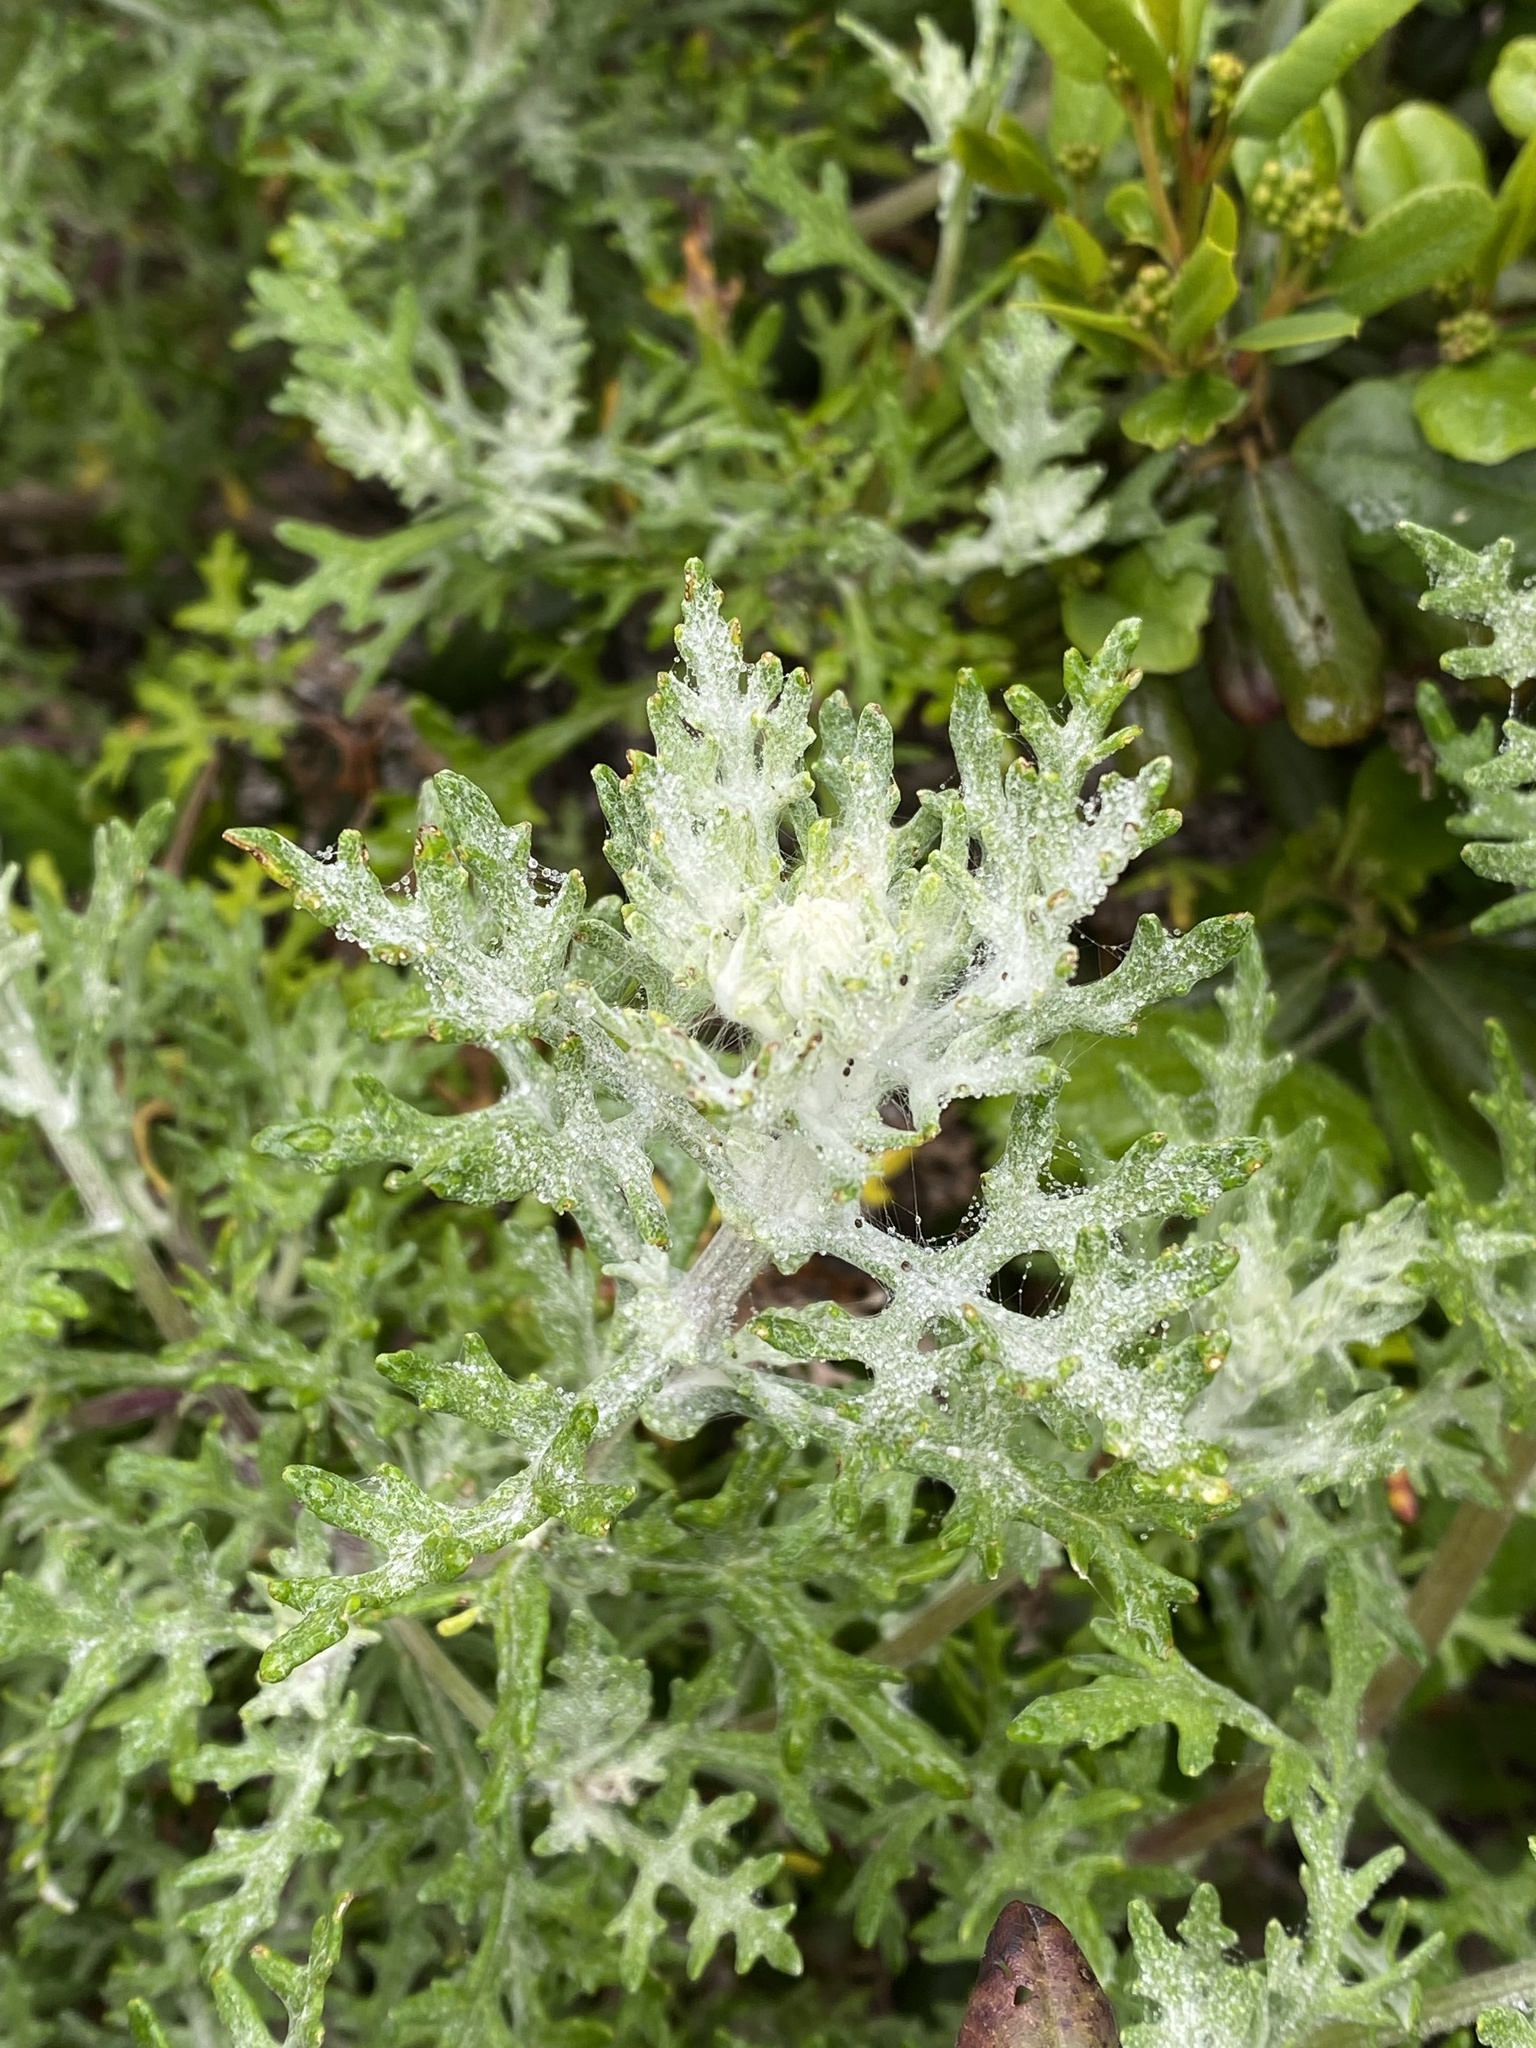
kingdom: Plantae
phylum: Tracheophyta
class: Magnoliopsida
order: Asterales
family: Asteraceae
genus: Eriophyllum
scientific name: Eriophyllum staechadifolium
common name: Lizardtail
